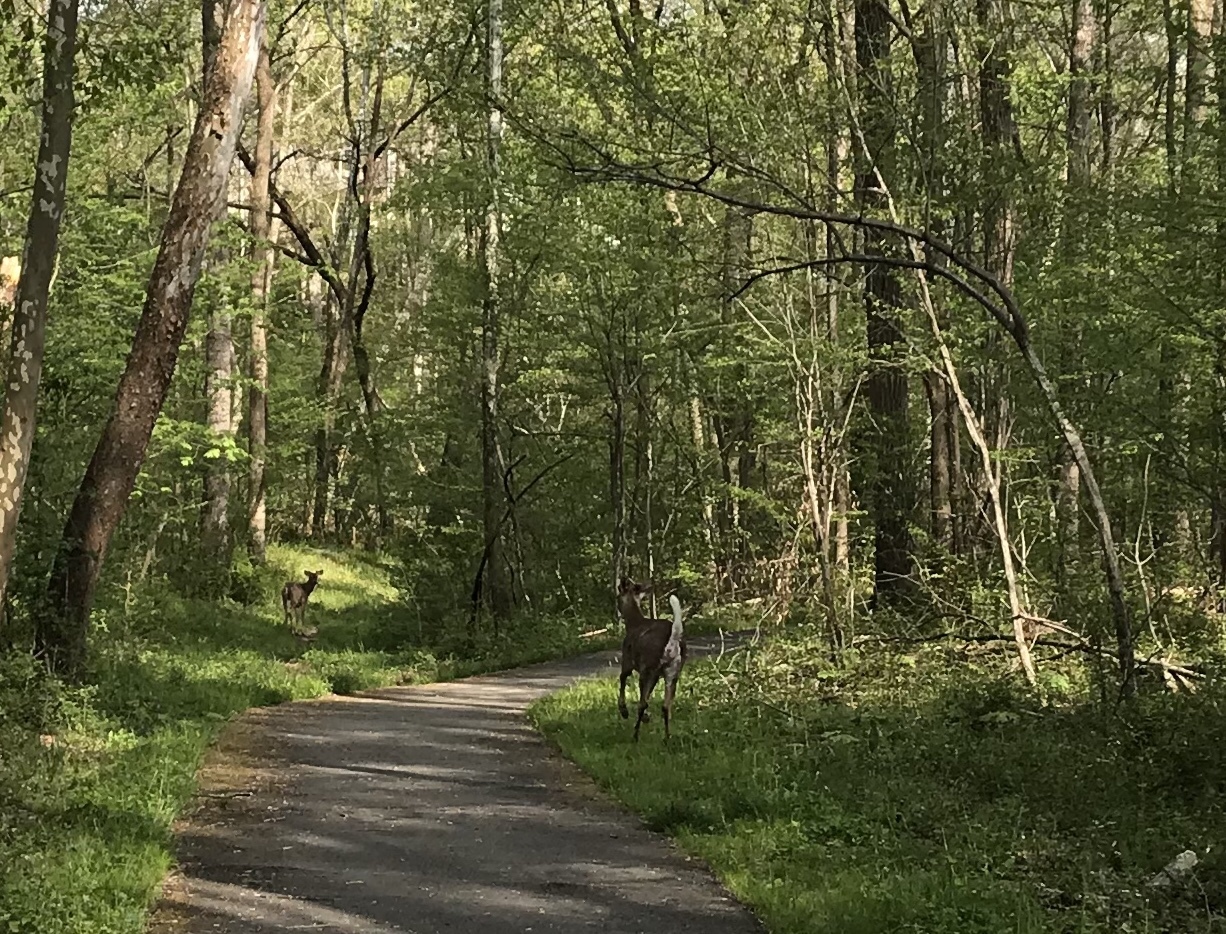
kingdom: Animalia
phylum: Chordata
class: Mammalia
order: Artiodactyla
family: Cervidae
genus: Odocoileus
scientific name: Odocoileus virginianus
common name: White-tailed deer
